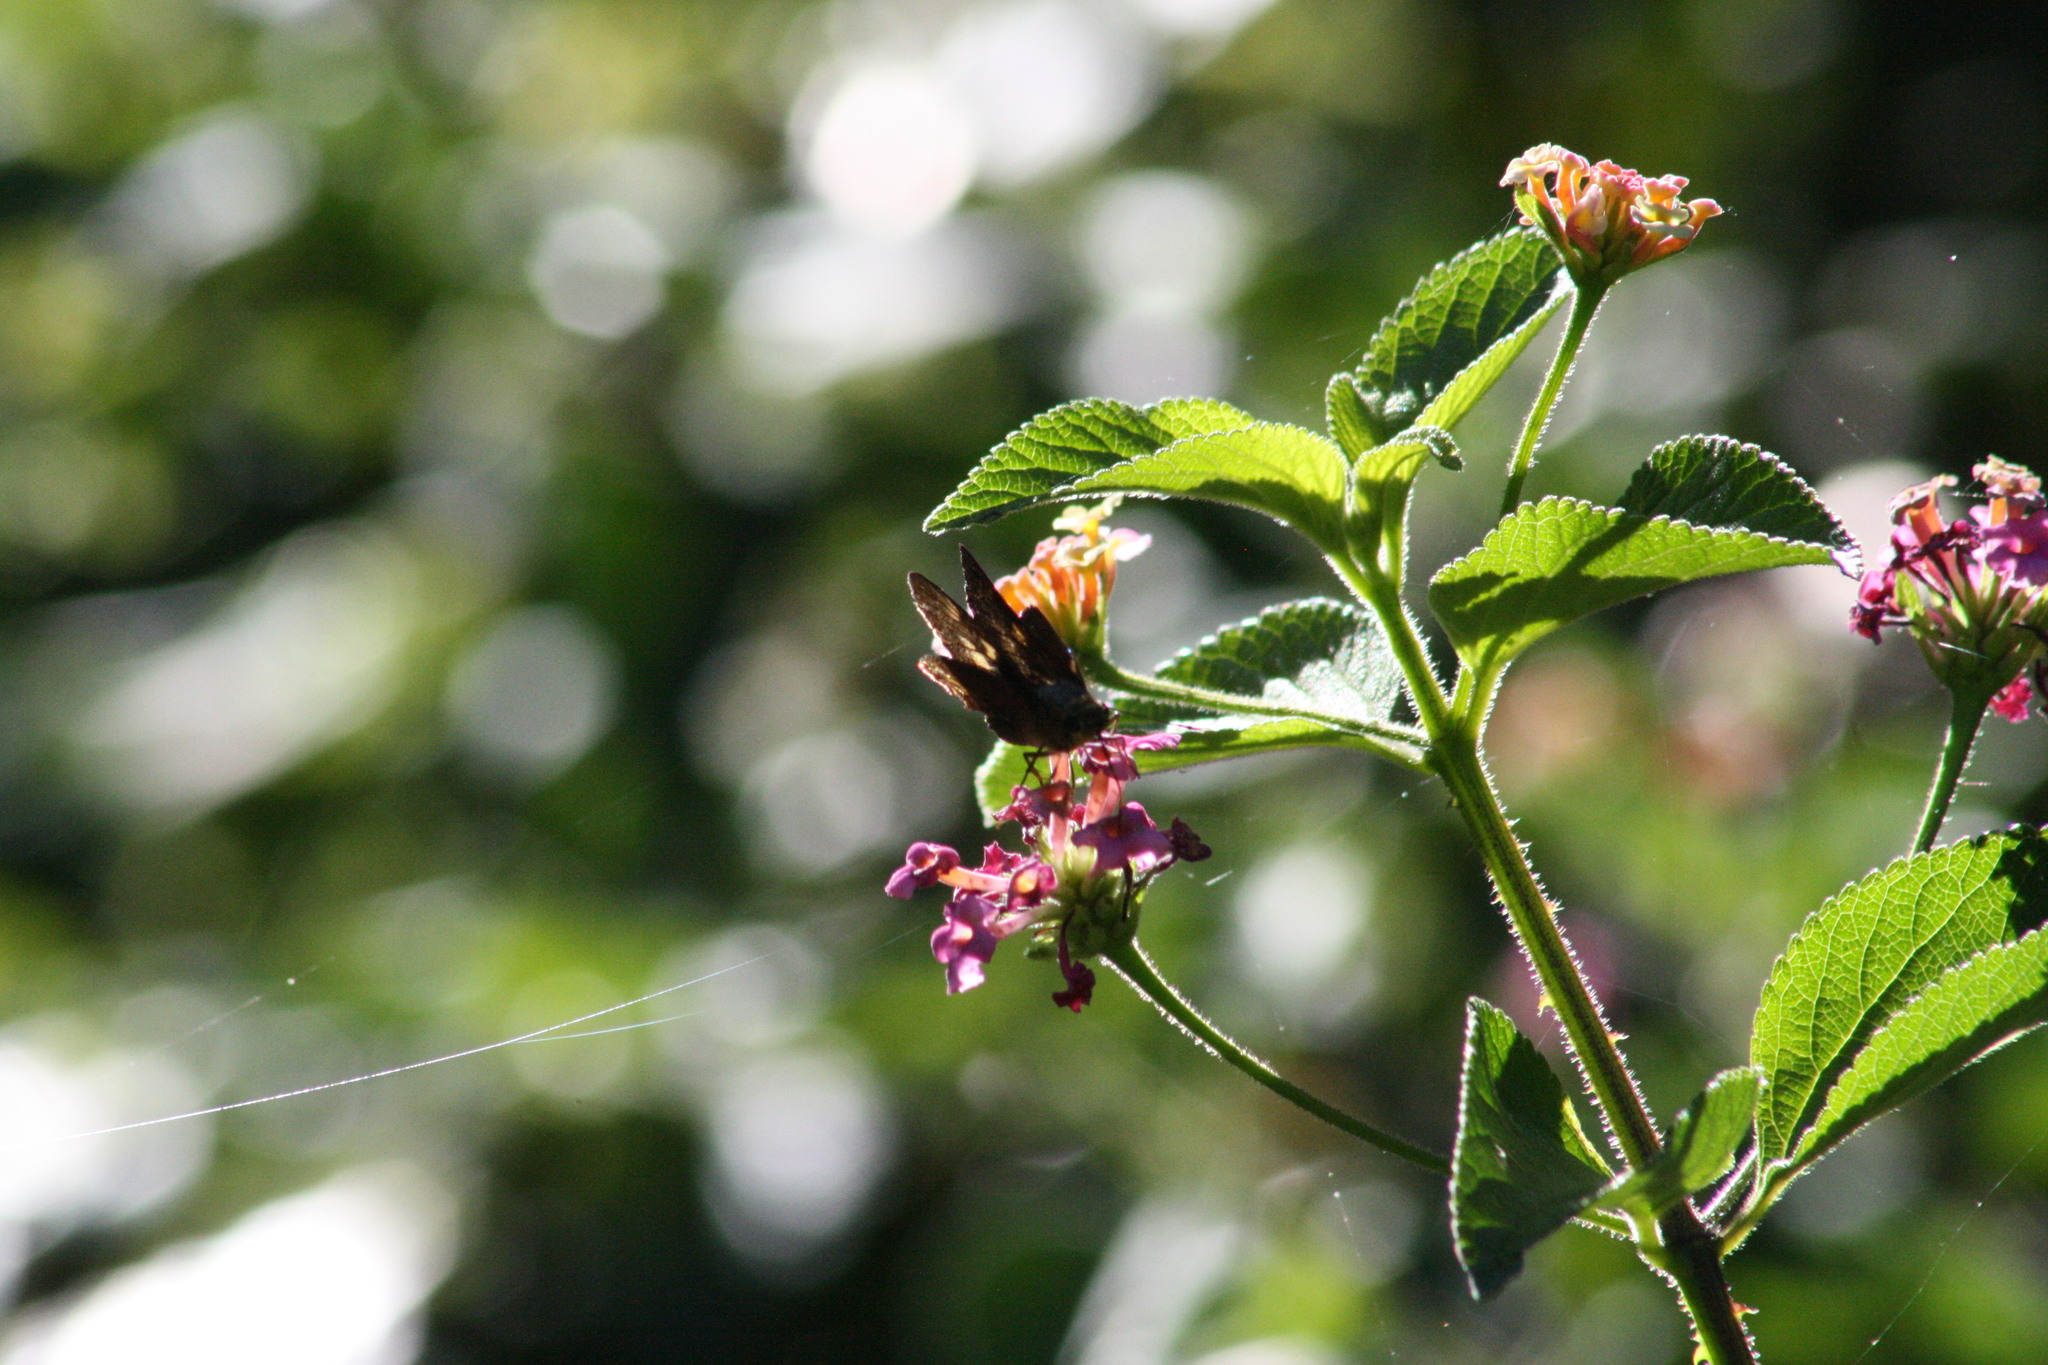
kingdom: Animalia
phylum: Arthropoda
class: Insecta
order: Lepidoptera
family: Hesperiidae
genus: Cephrenes
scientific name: Cephrenes augiades
